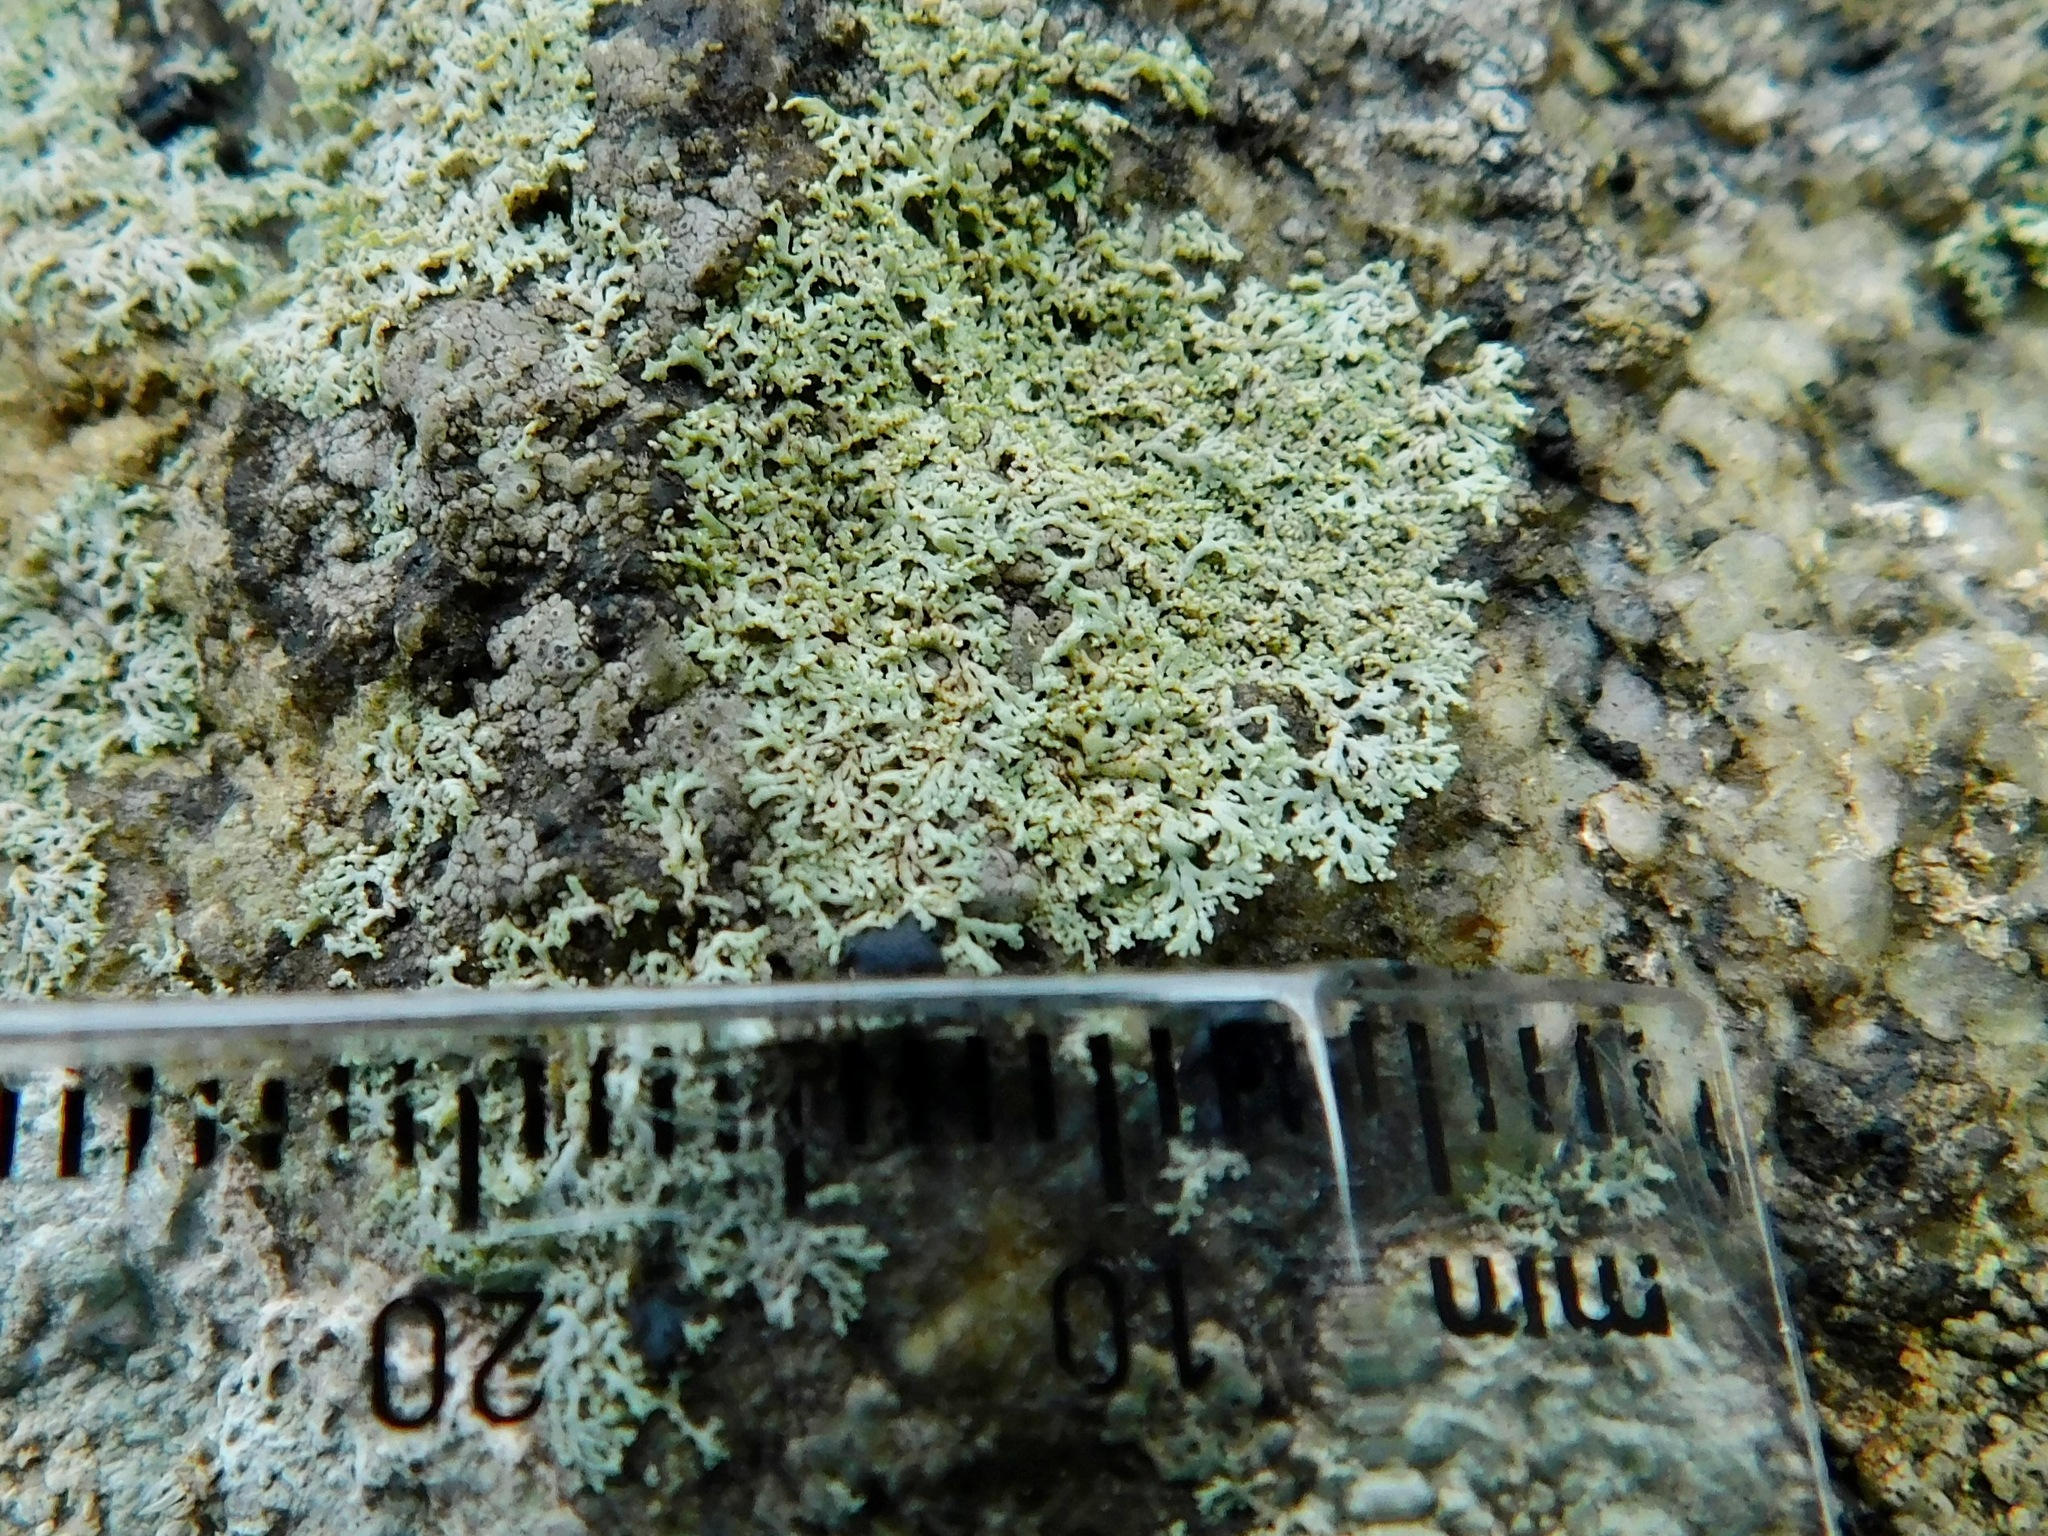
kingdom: Fungi
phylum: Ascomycota
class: Lecanoromycetes
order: Caliciales
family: Physciaceae
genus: Physcia
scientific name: Physcia subtilis
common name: Slender rosette lichen
